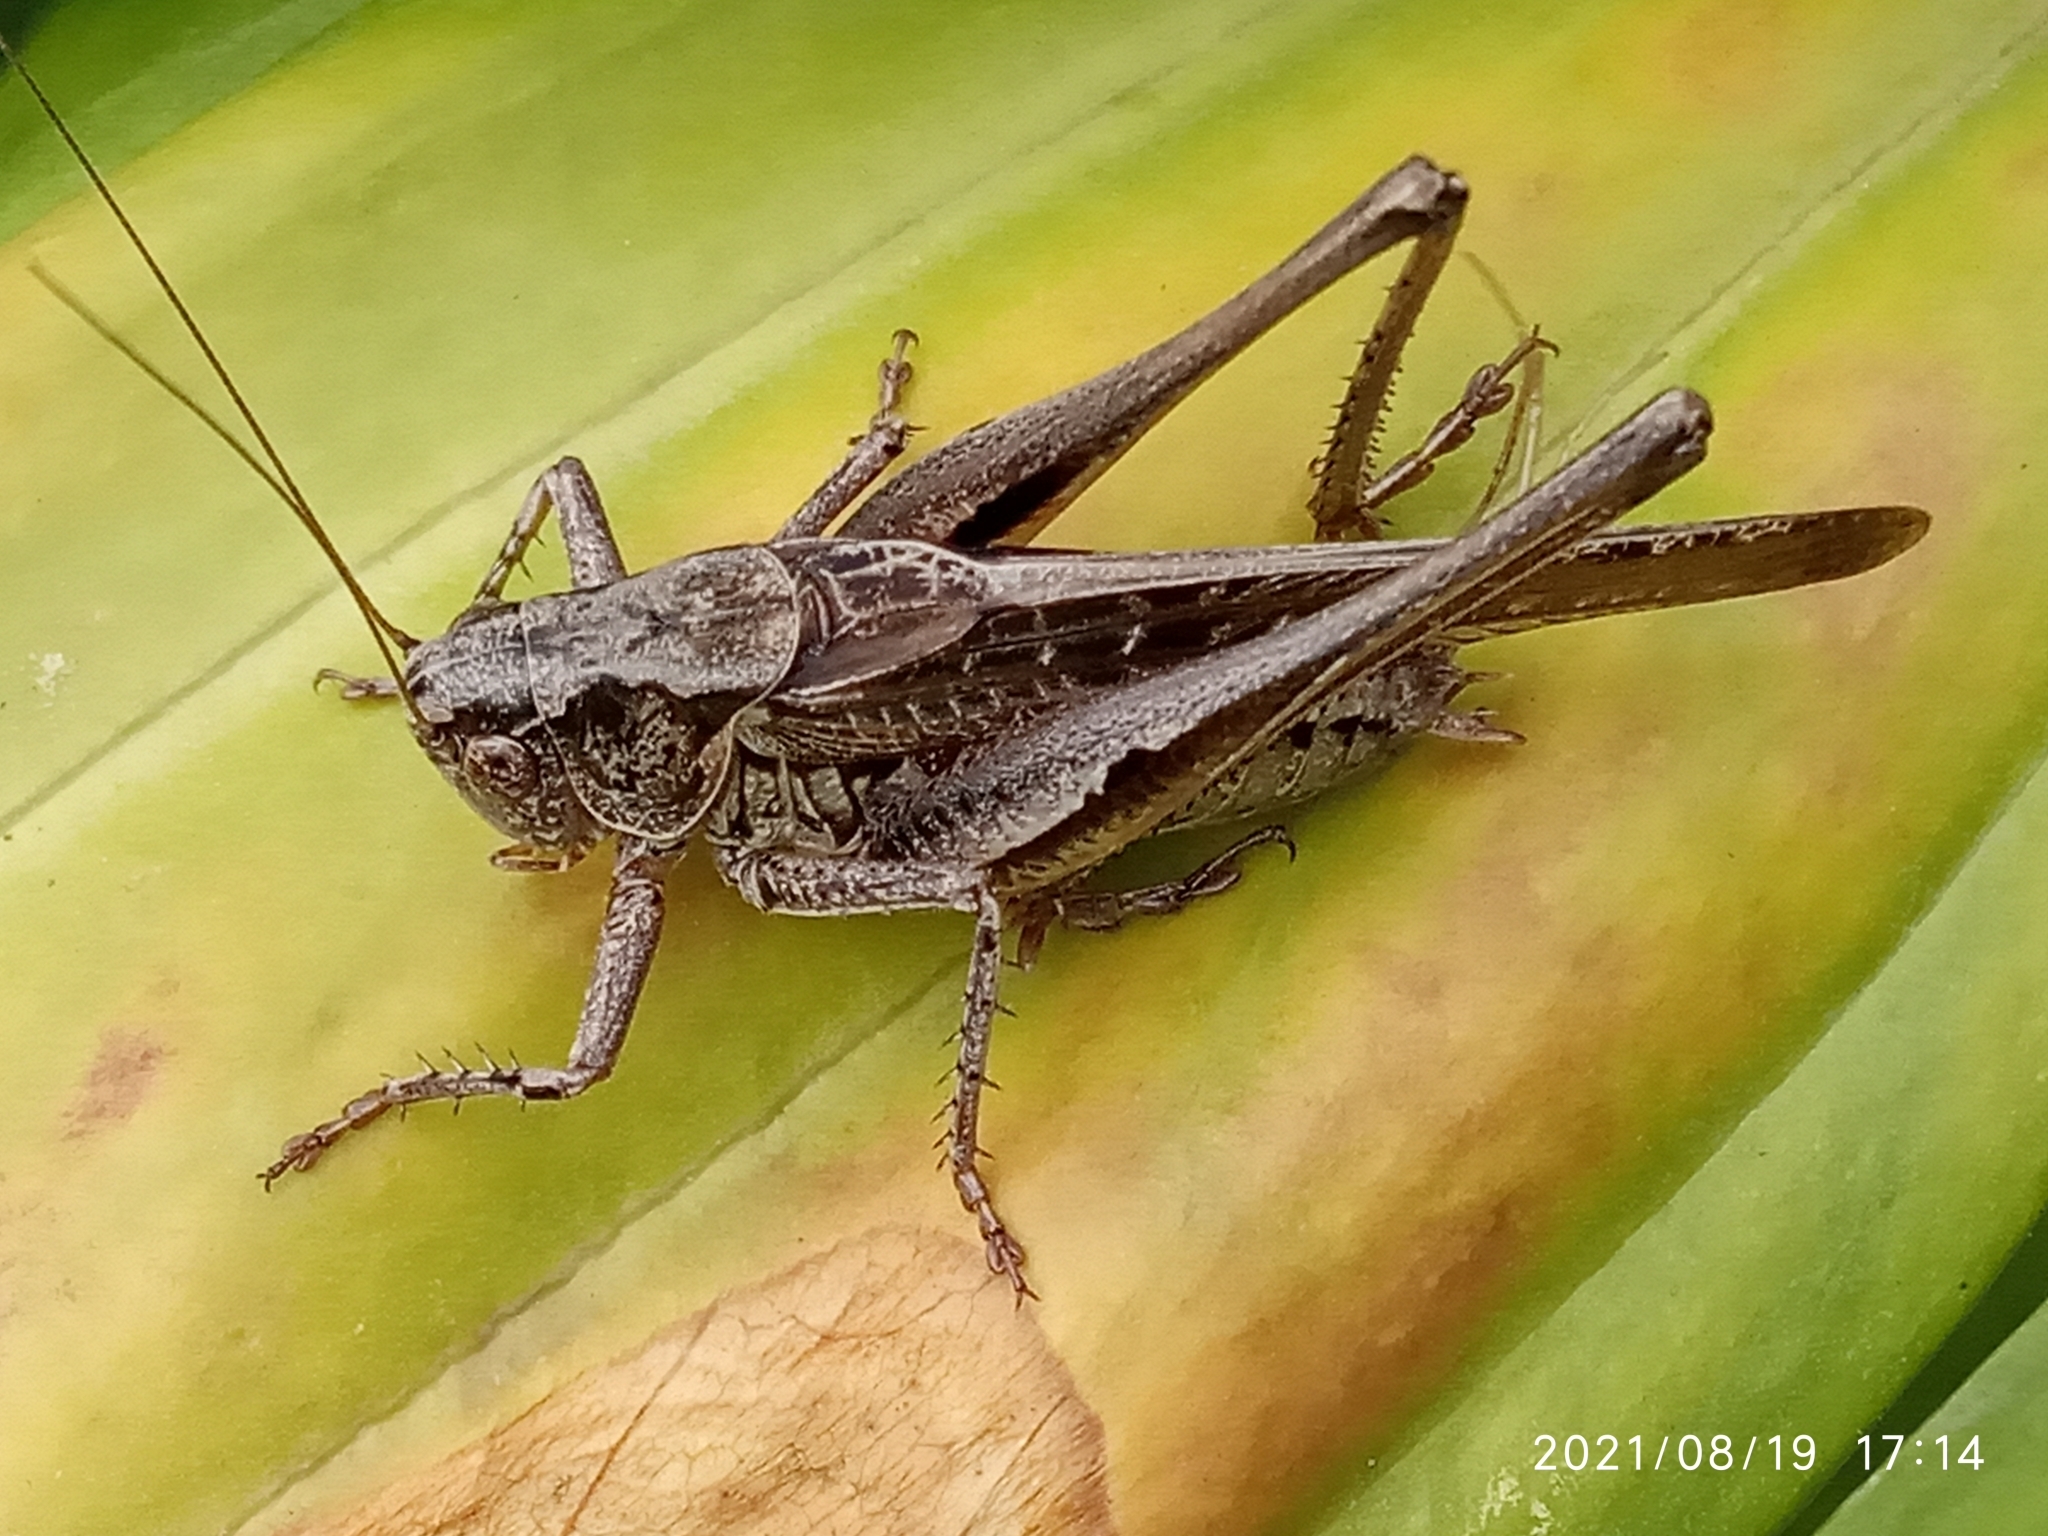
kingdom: Animalia
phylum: Arthropoda
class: Insecta
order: Orthoptera
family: Tettigoniidae
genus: Platycleis
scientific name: Platycleis albopunctata
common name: Grey bush-cricket
